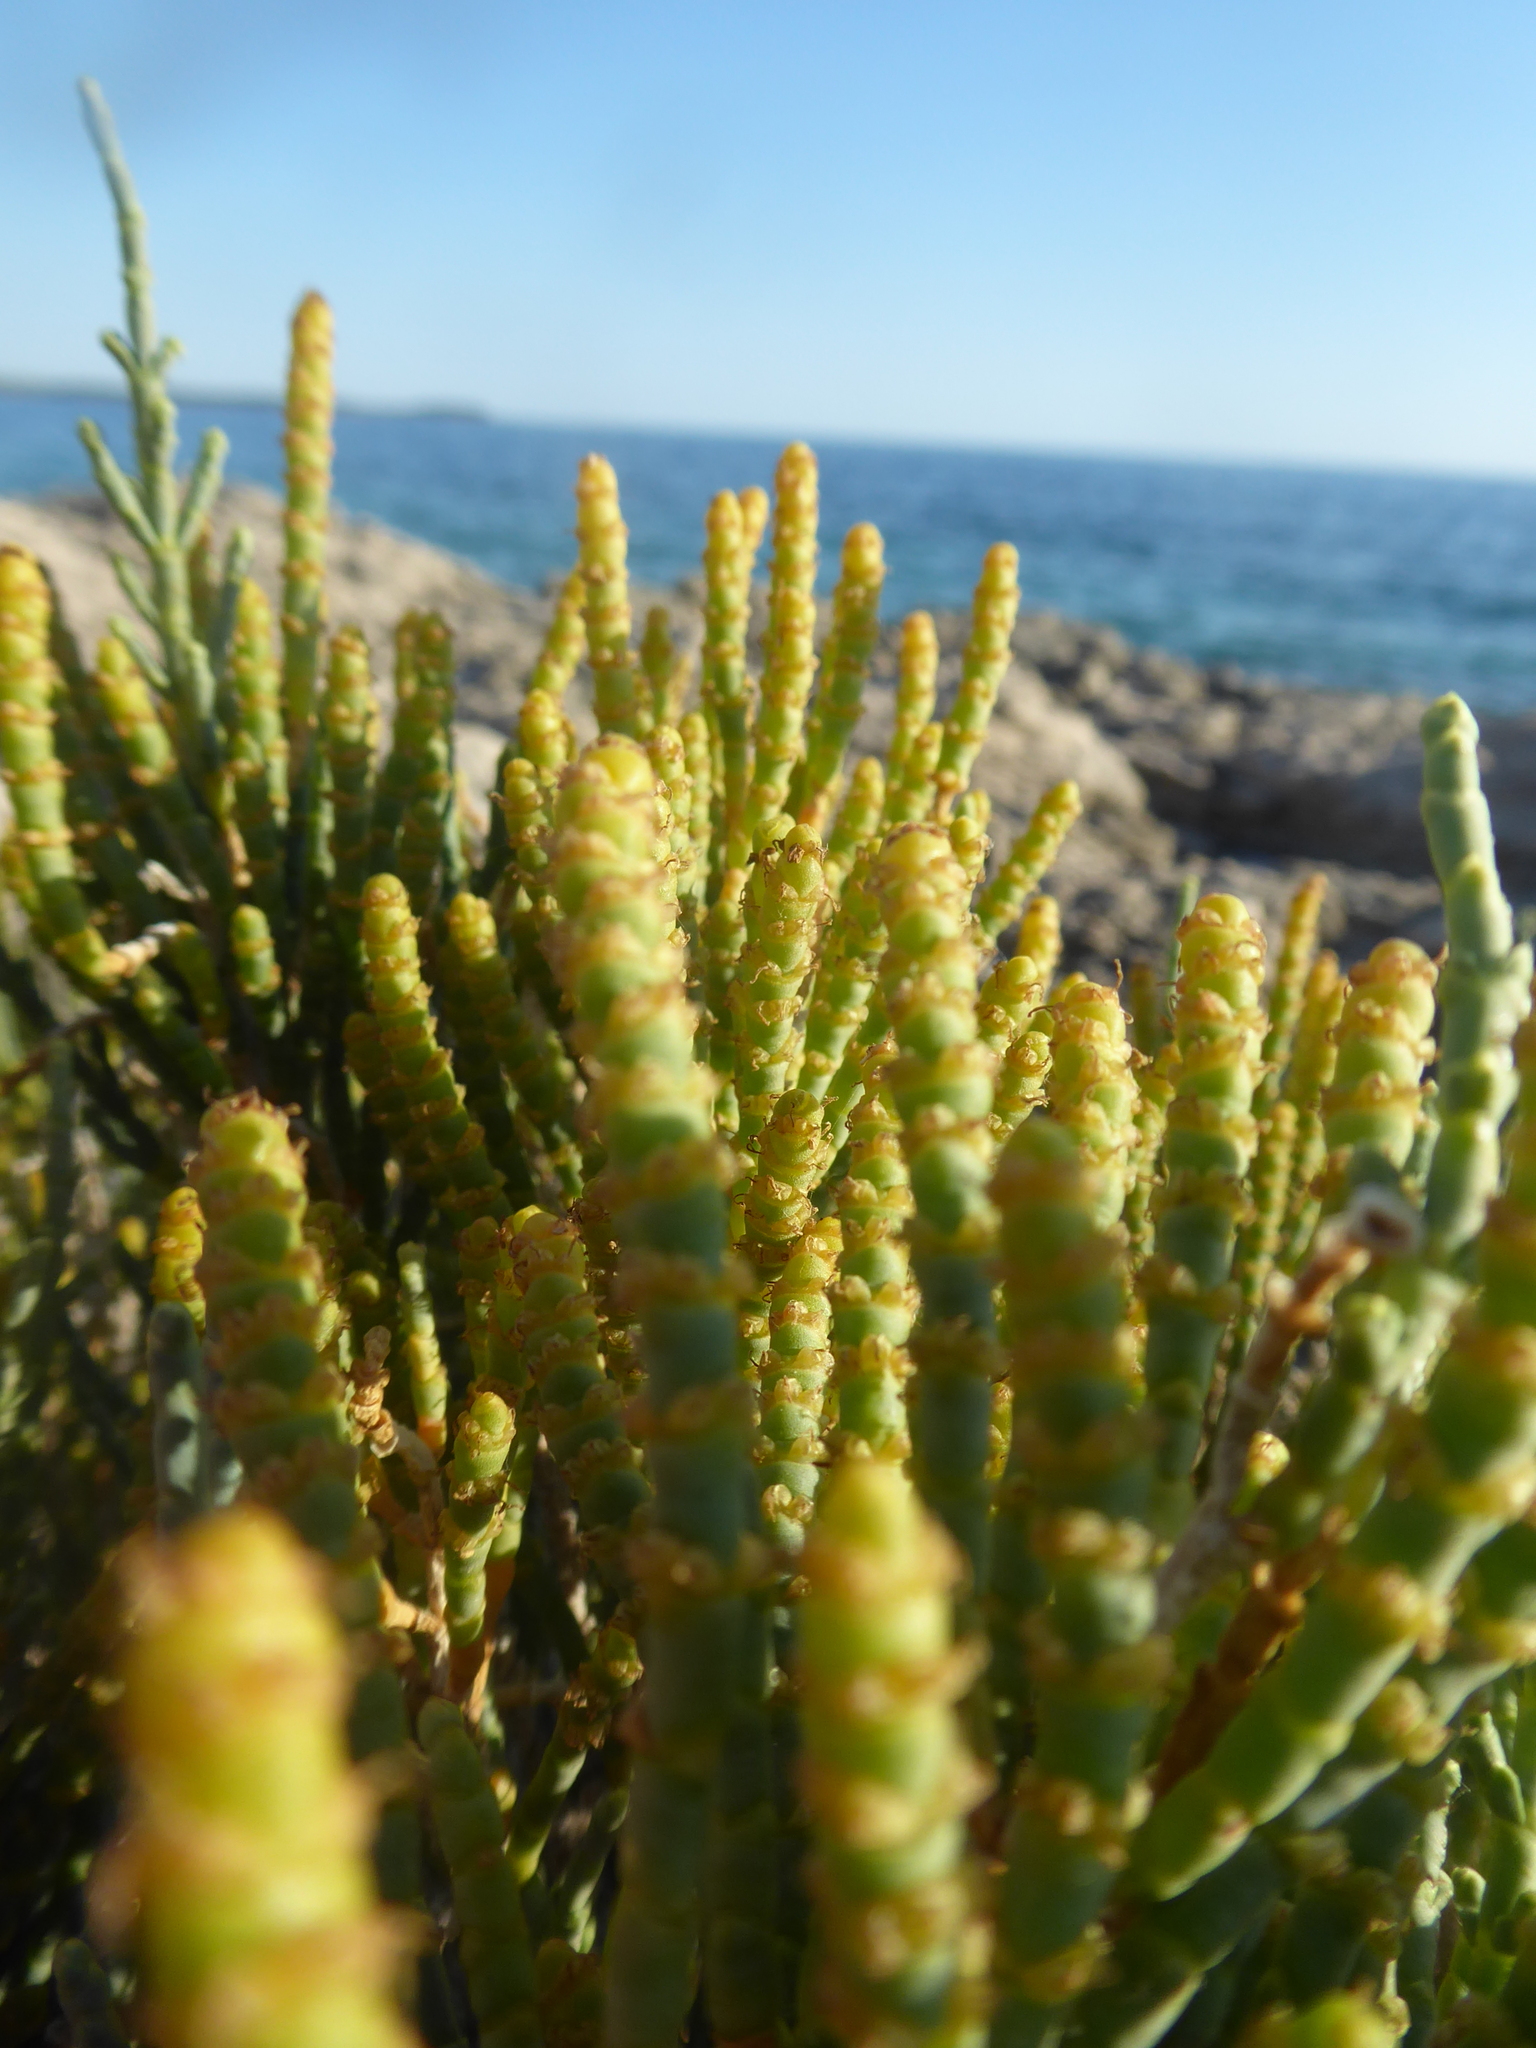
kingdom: Plantae
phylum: Tracheophyta
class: Magnoliopsida
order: Caryophyllales
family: Amaranthaceae
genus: Arthrocaulon
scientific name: Arthrocaulon macrostachyum
